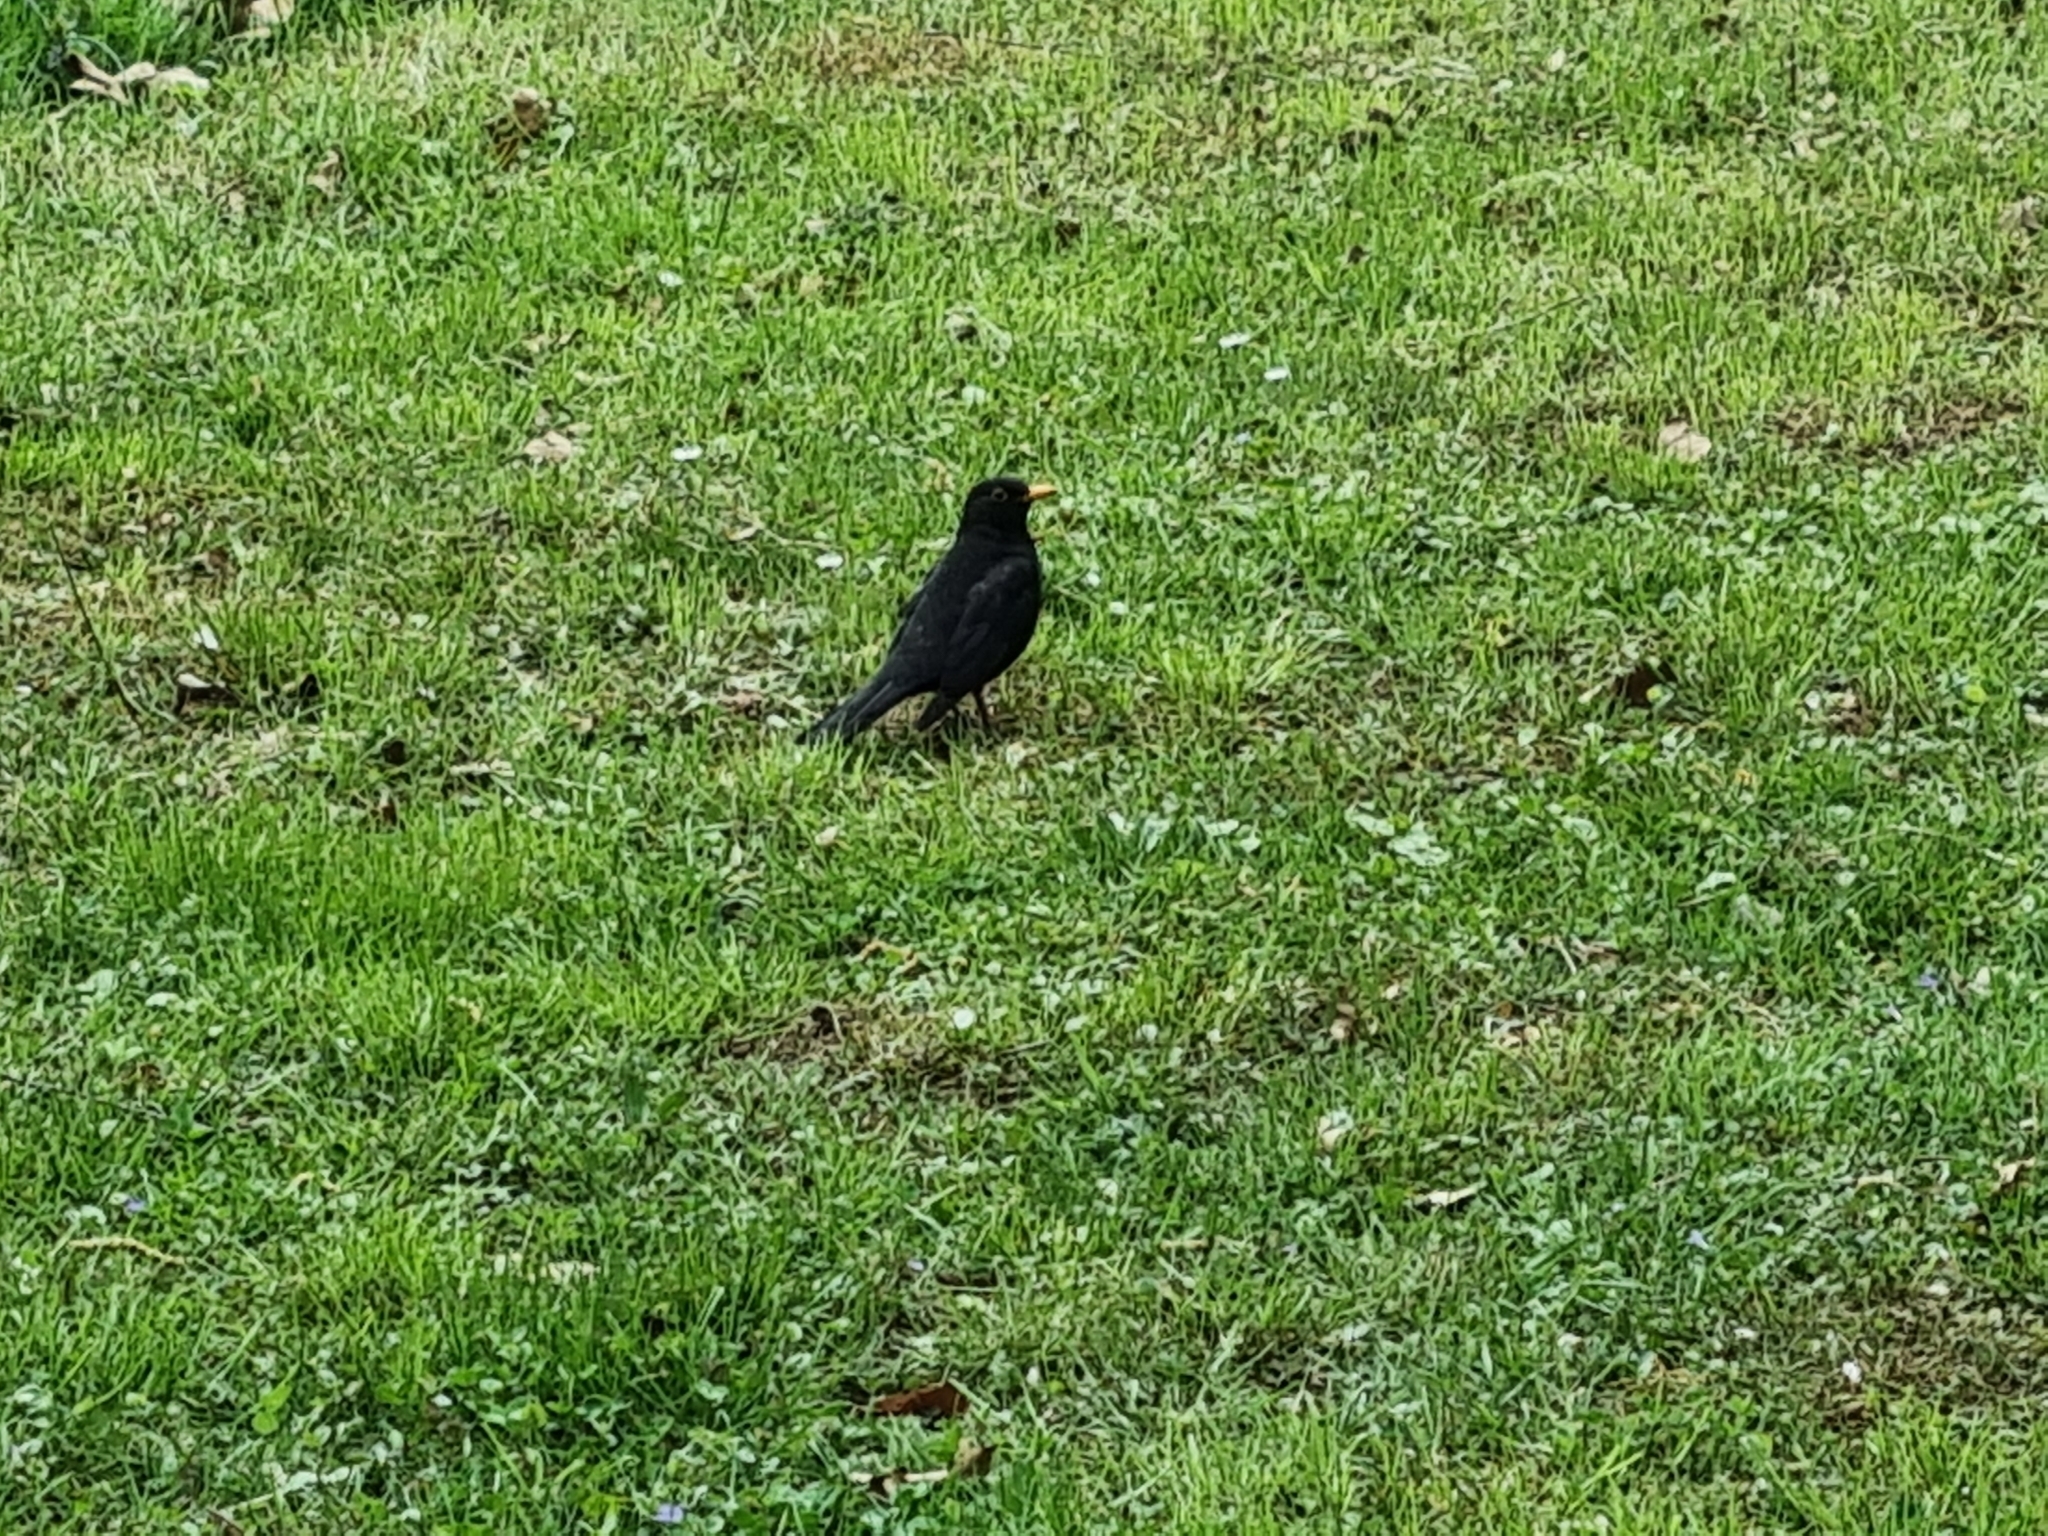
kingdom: Animalia
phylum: Chordata
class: Aves
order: Passeriformes
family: Turdidae
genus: Turdus
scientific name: Turdus merula
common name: Common blackbird
